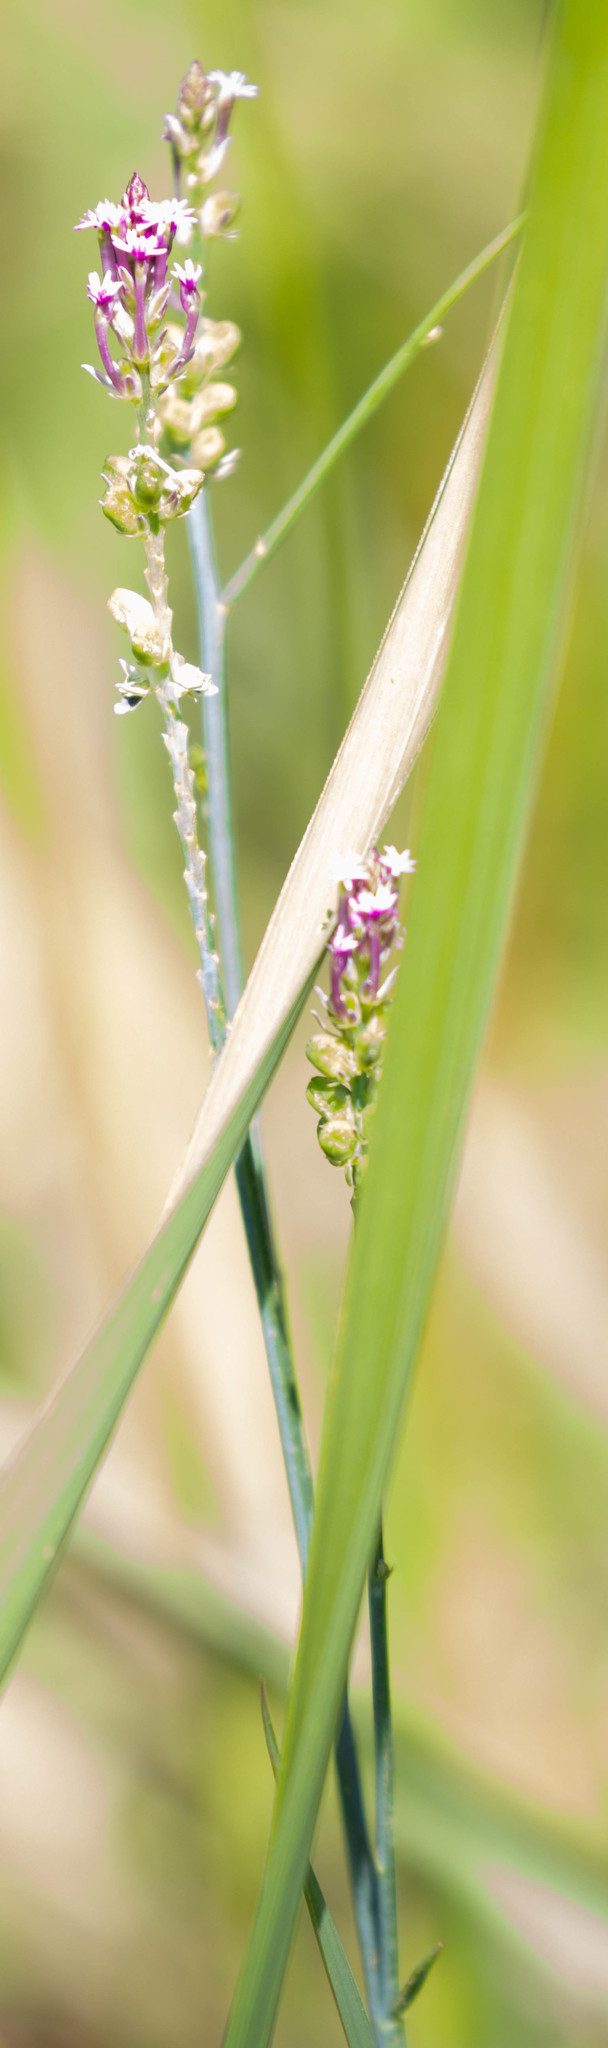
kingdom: Plantae
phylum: Tracheophyta
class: Magnoliopsida
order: Fabales
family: Polygalaceae
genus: Polygala
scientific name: Polygala incarnata
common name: Pink milkwort
